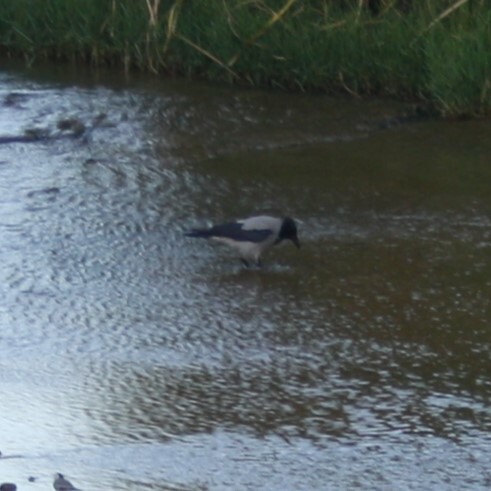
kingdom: Animalia
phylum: Chordata
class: Aves
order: Passeriformes
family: Corvidae
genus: Corvus
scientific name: Corvus cornix
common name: Hooded crow
